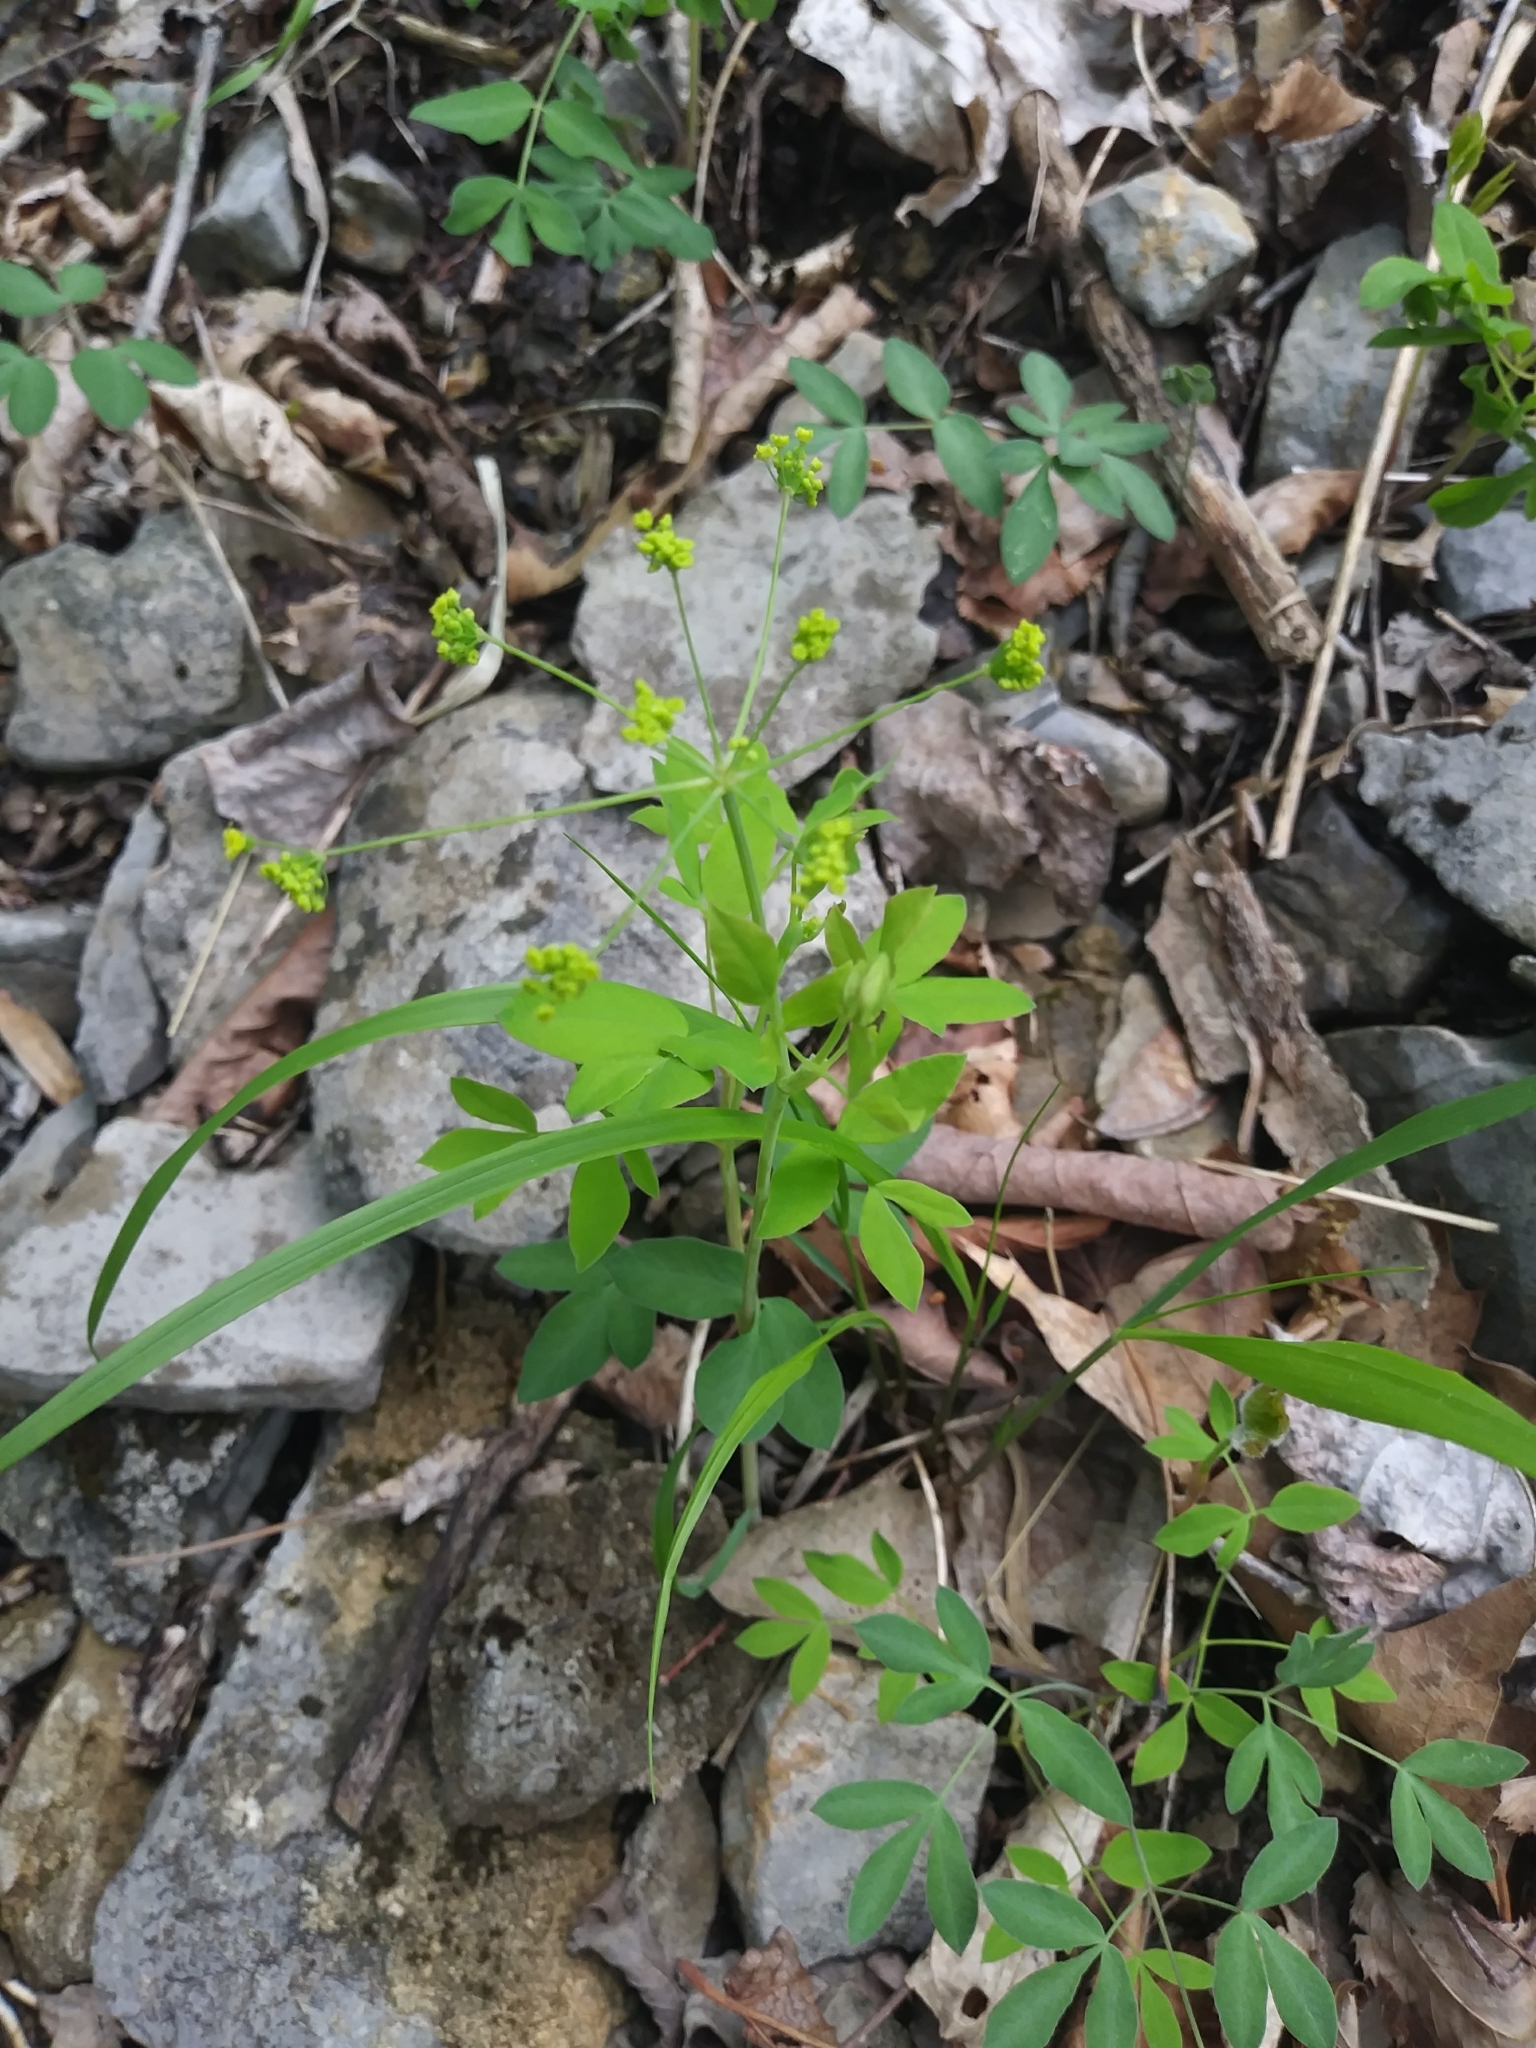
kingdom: Plantae
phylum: Tracheophyta
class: Magnoliopsida
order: Apiales
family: Apiaceae
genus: Taenidia
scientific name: Taenidia integerrima
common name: Golden alexander
